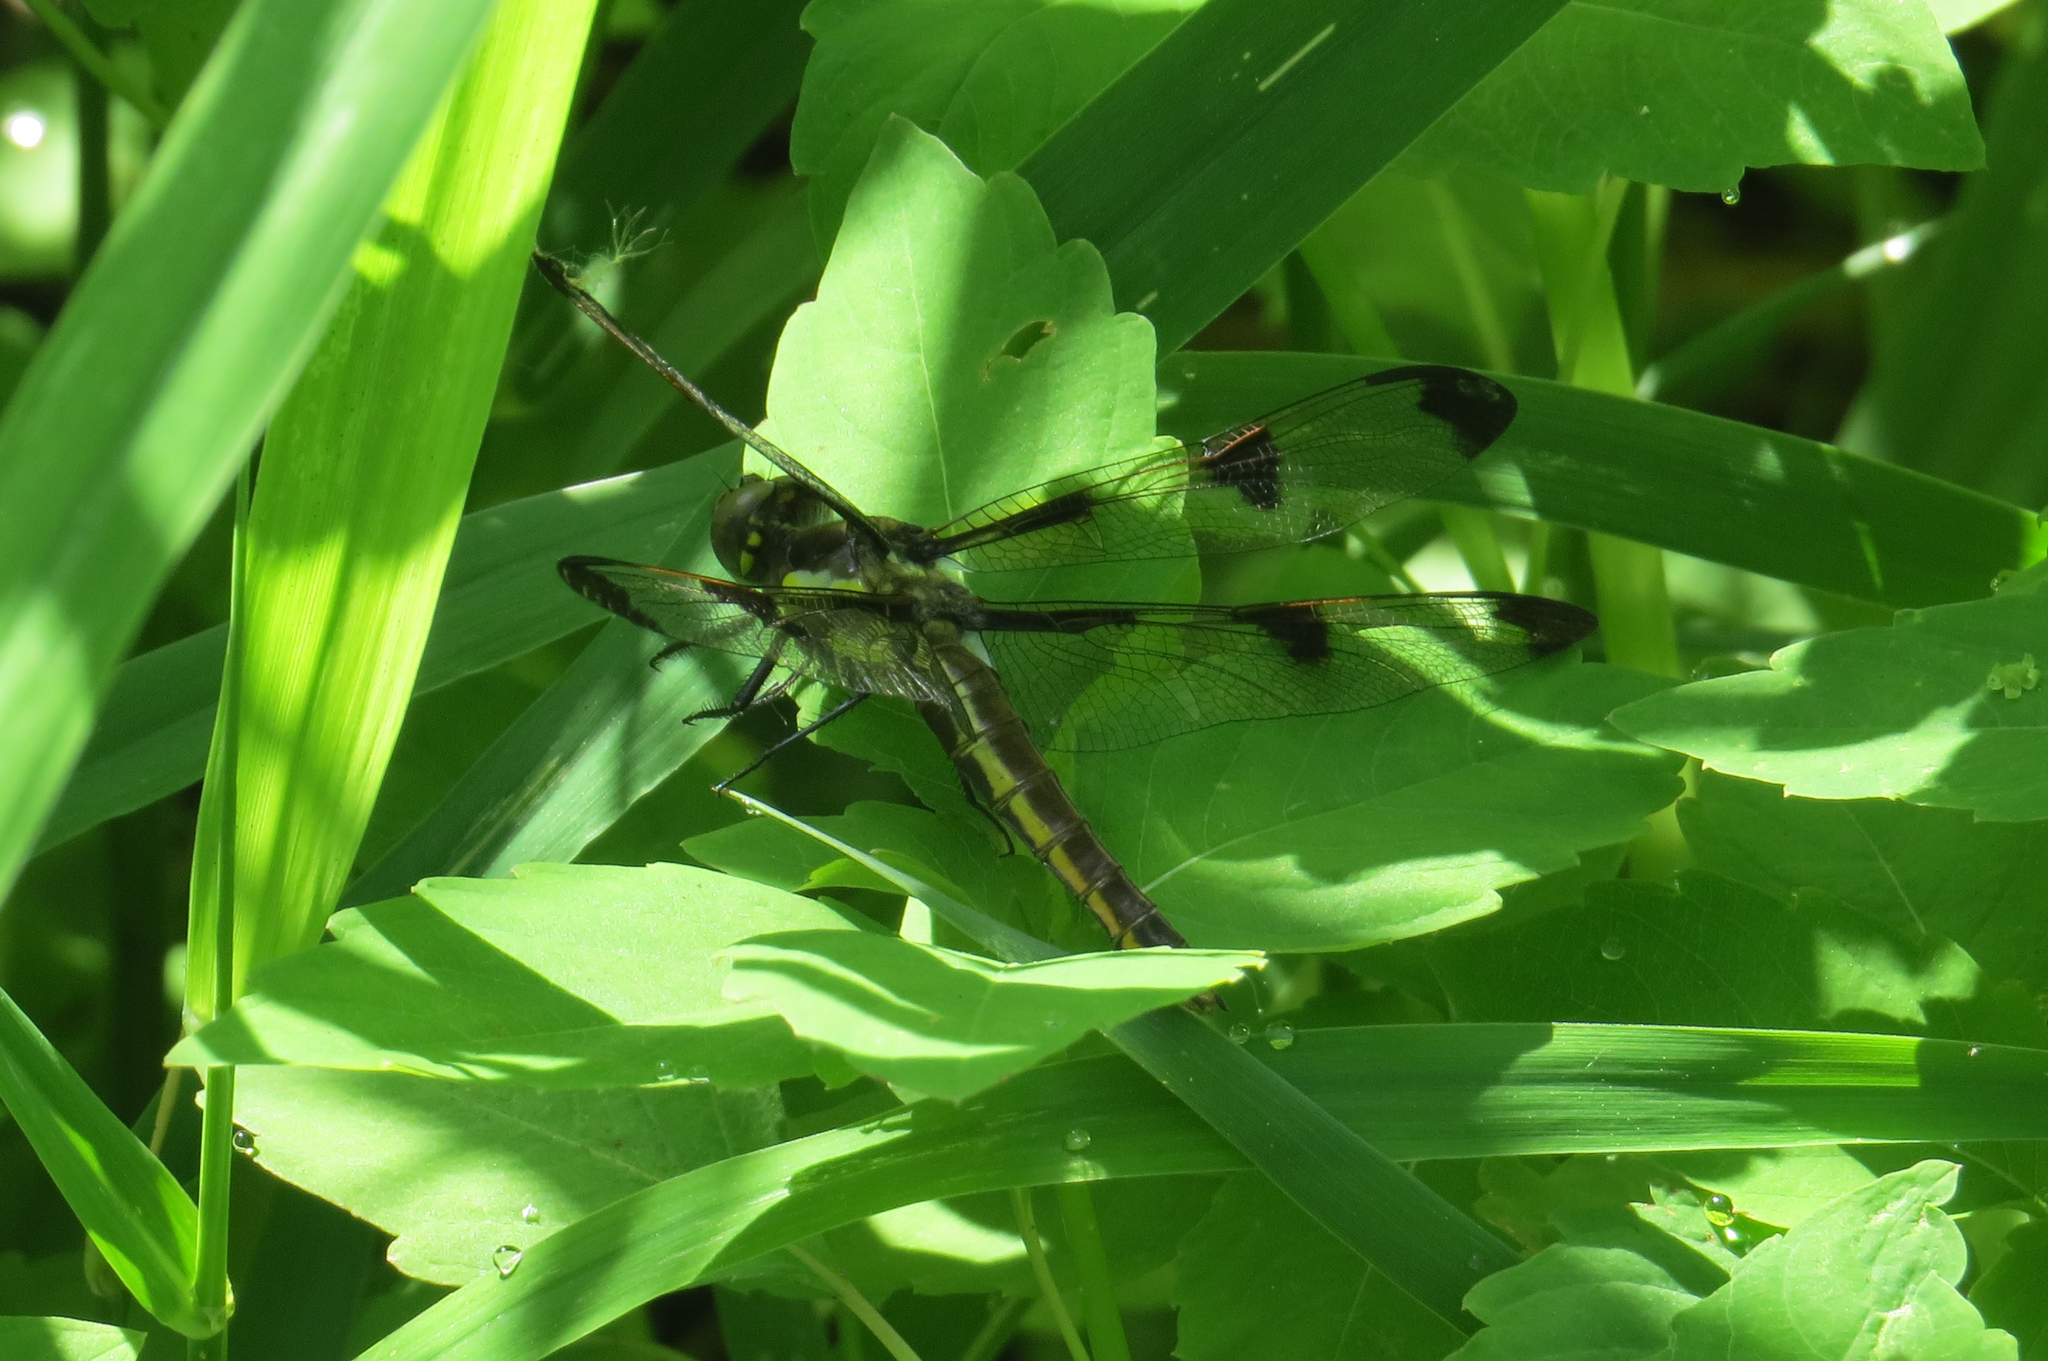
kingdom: Animalia
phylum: Arthropoda
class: Insecta
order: Odonata
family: Libellulidae
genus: Libellula
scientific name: Libellula pulchella
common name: Twelve-spotted skimmer
